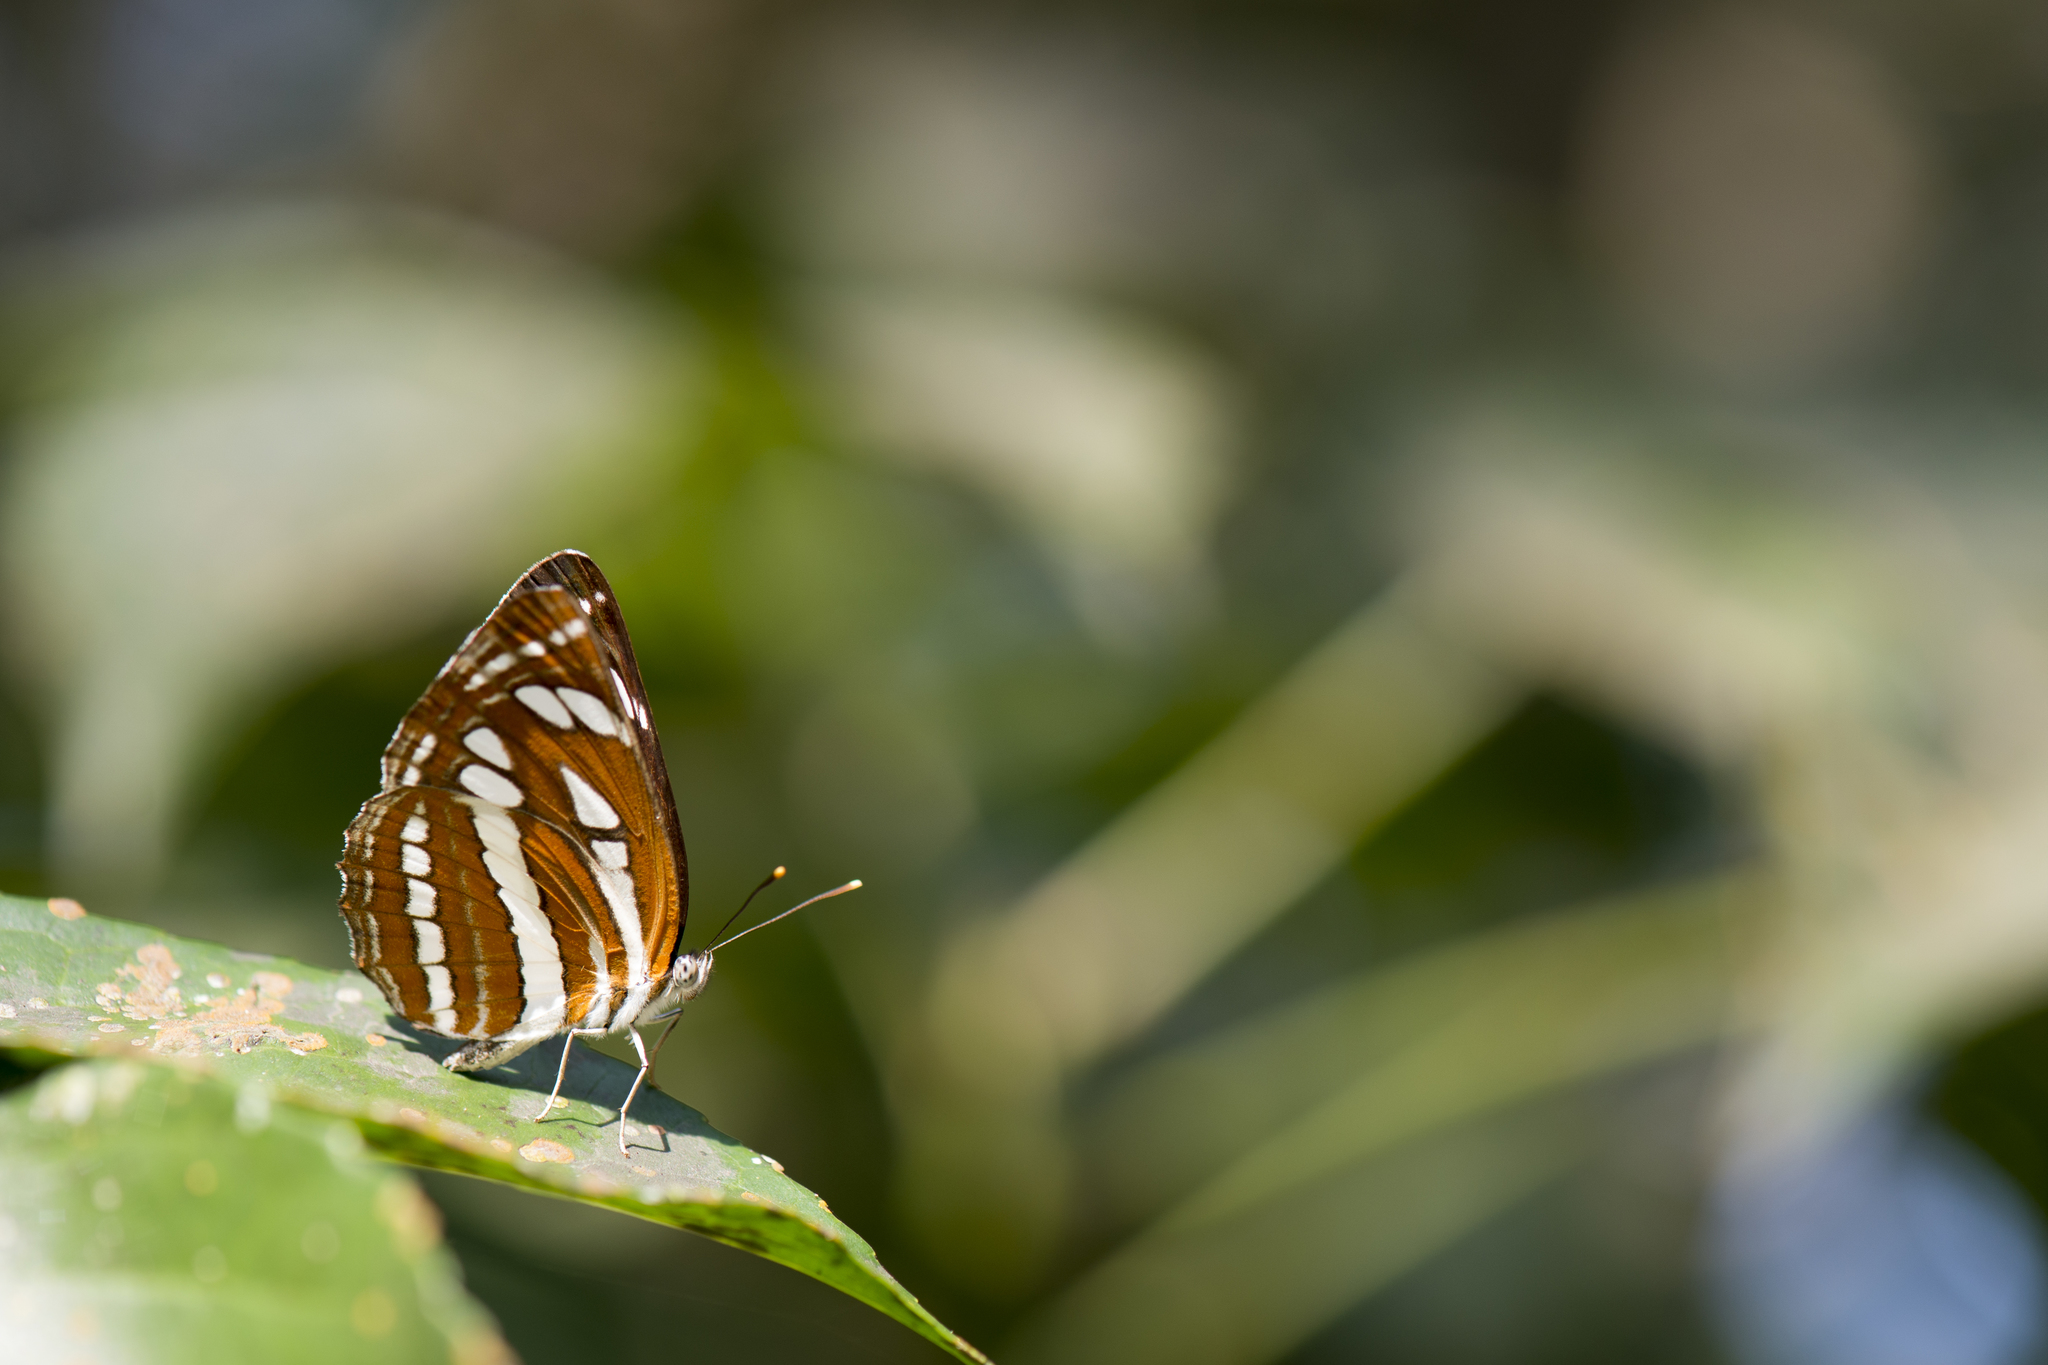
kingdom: Animalia
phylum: Arthropoda
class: Insecta
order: Lepidoptera
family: Nymphalidae
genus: Neptis
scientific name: Neptis hylas
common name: Common sailer
